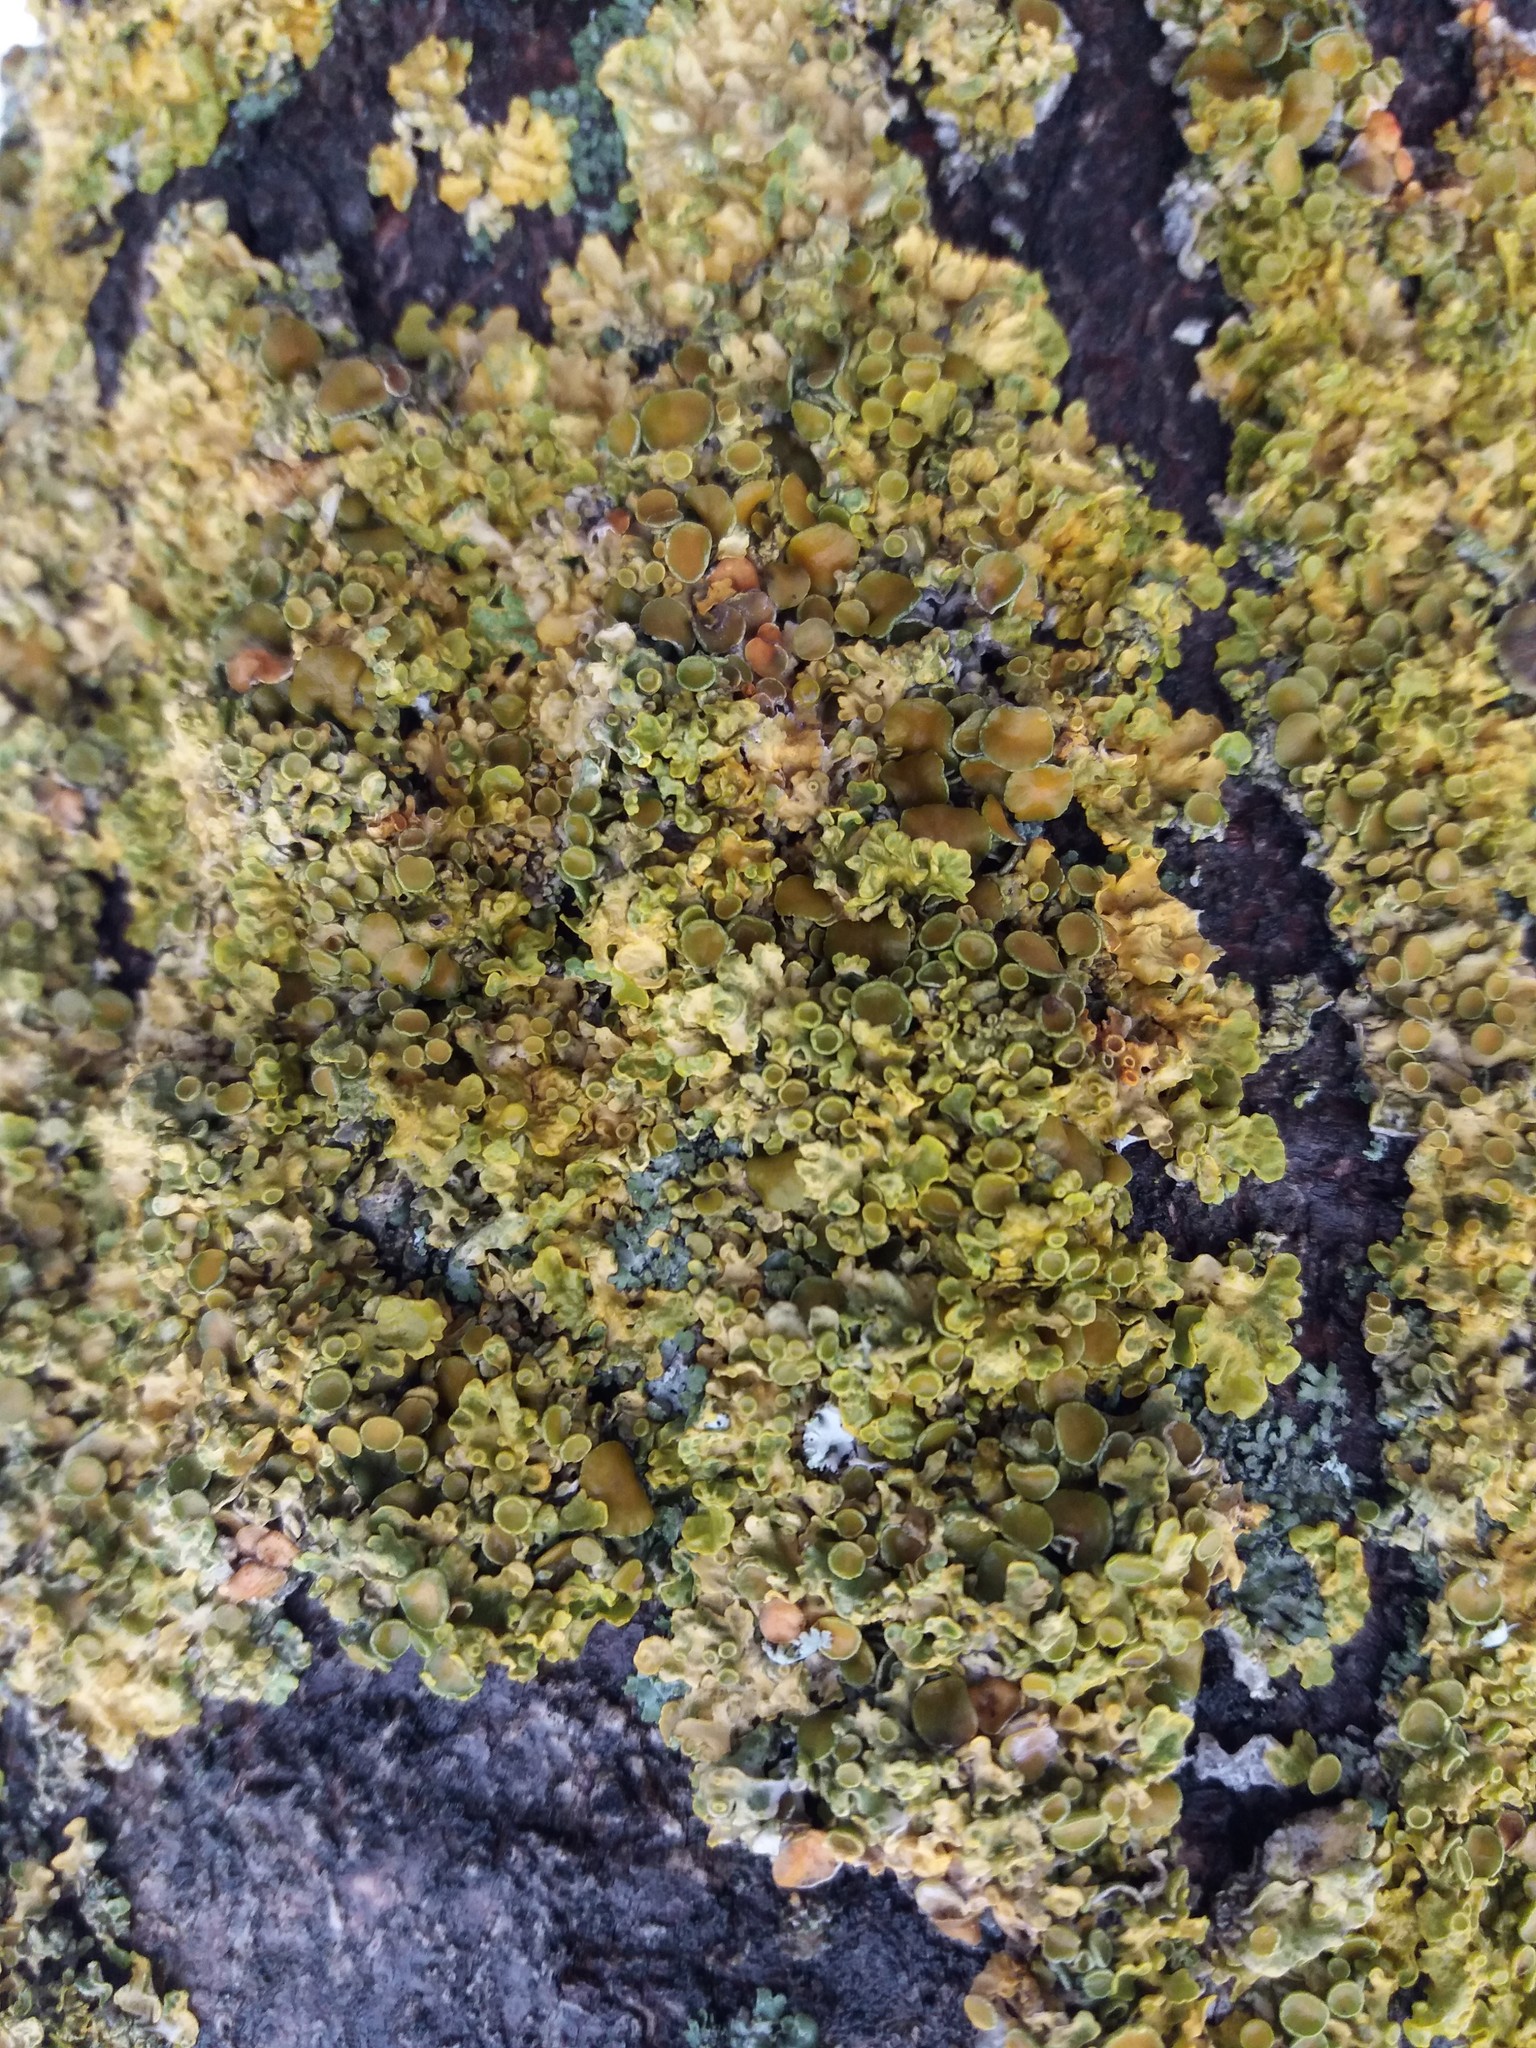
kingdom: Fungi
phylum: Ascomycota
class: Lecanoromycetes
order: Teloschistales
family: Teloschistaceae
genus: Xanthoria
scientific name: Xanthoria parietina
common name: Common orange lichen
